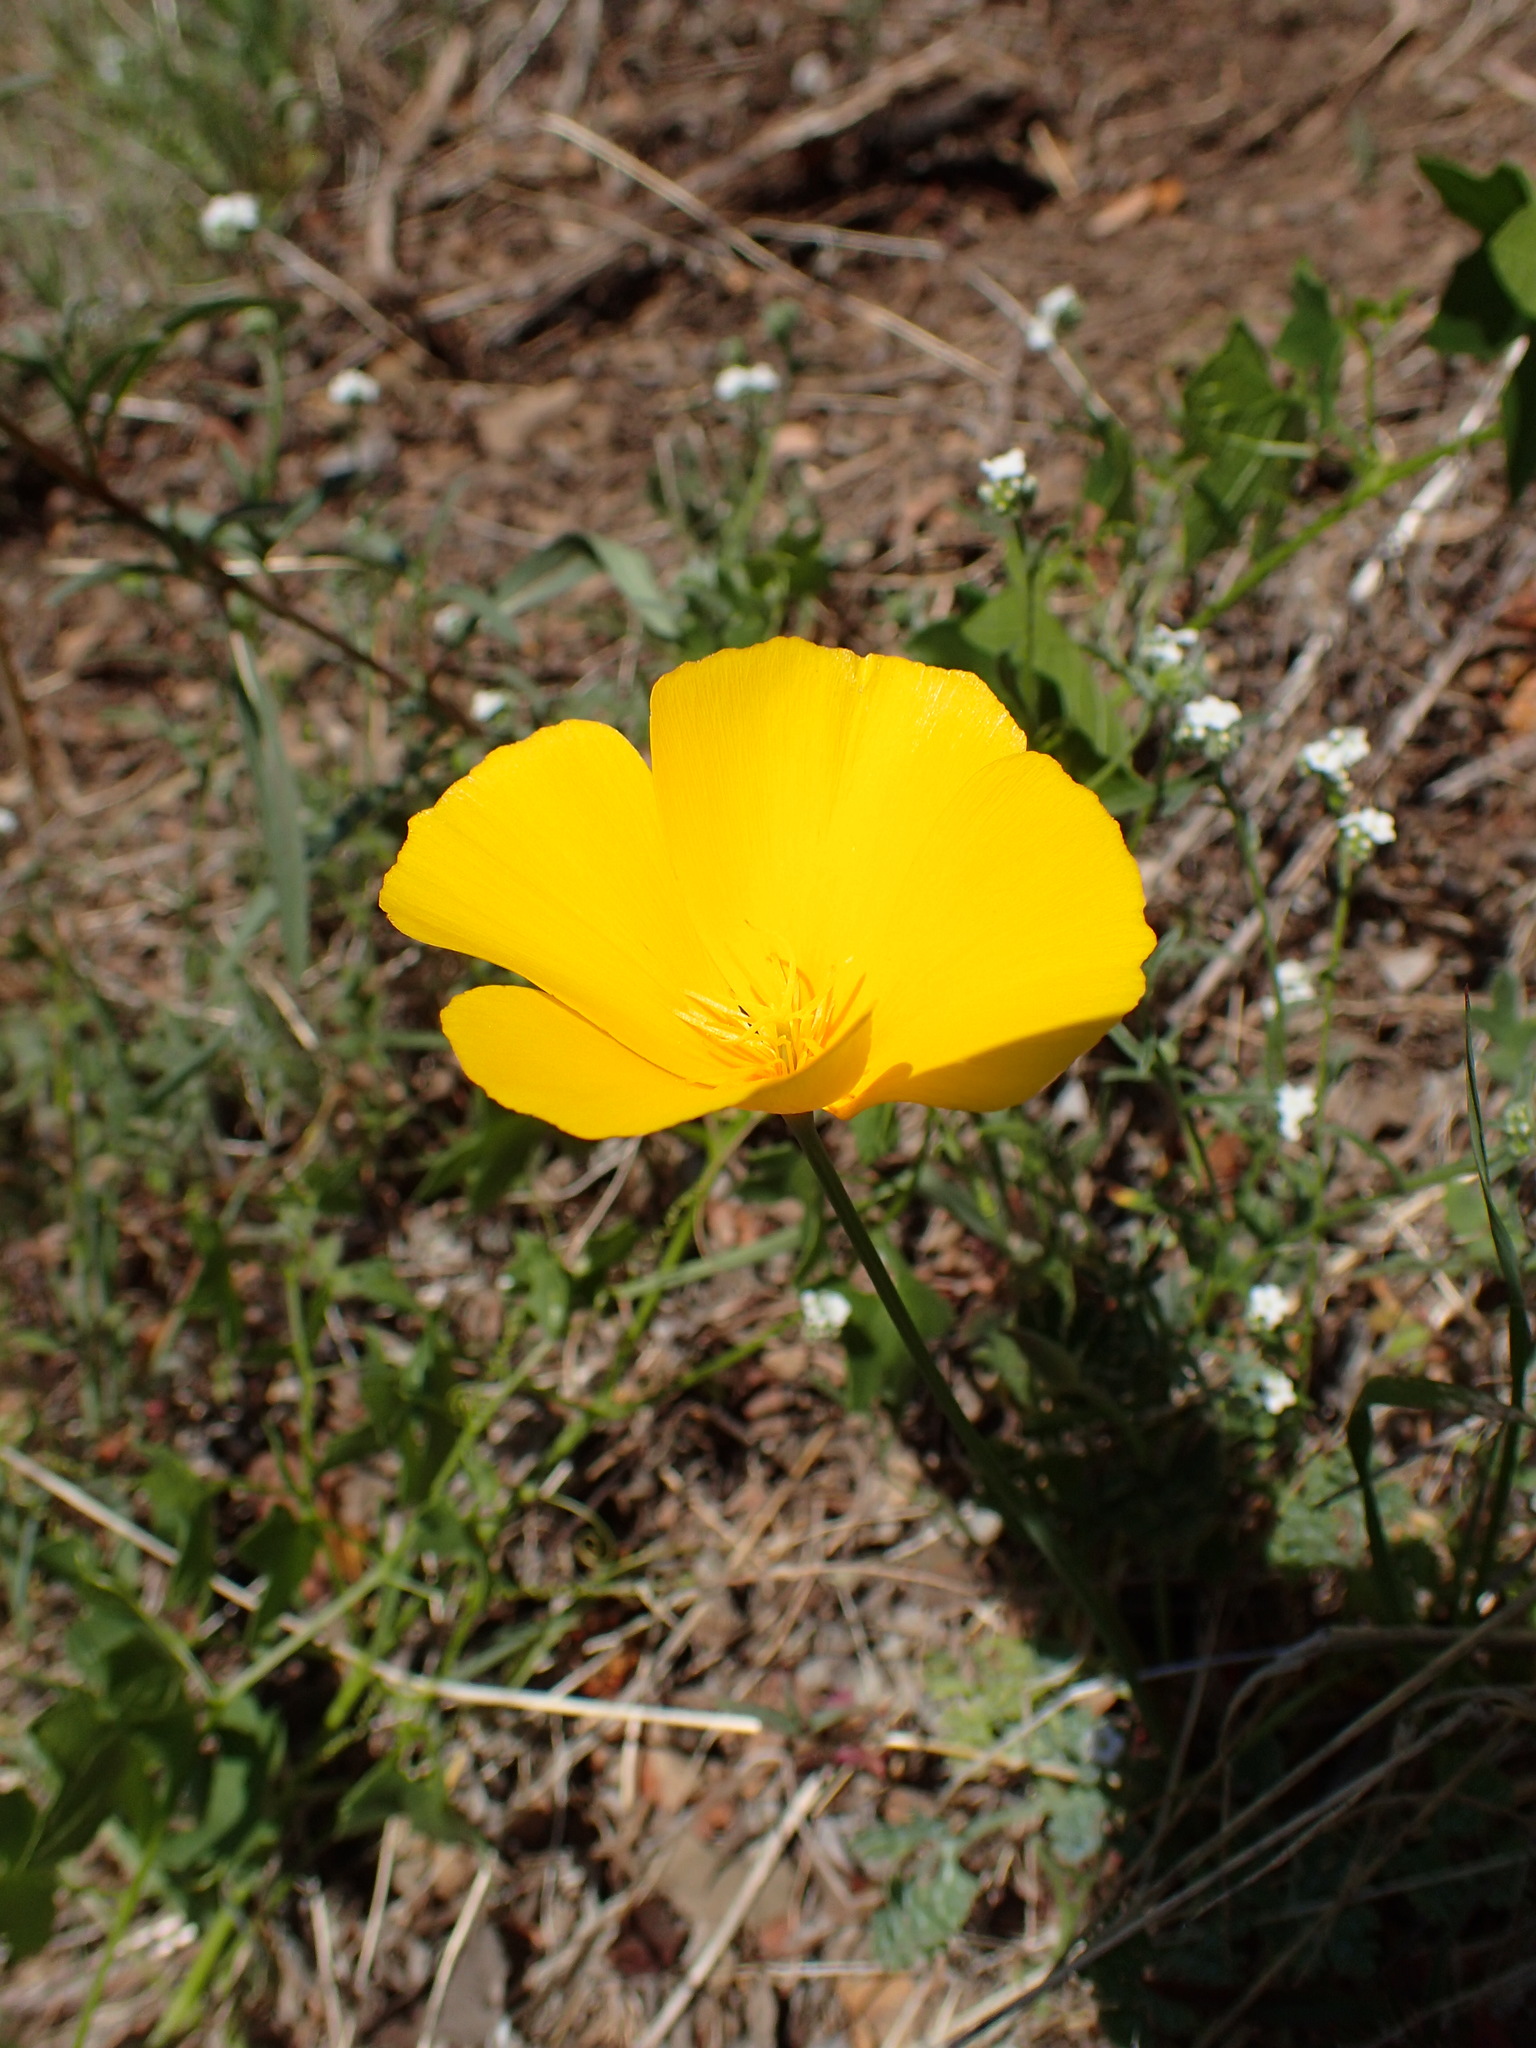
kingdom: Plantae
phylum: Tracheophyta
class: Magnoliopsida
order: Ranunculales
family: Papaveraceae
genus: Eschscholzia
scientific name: Eschscholzia caespitosa
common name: Tufted california-poppy
